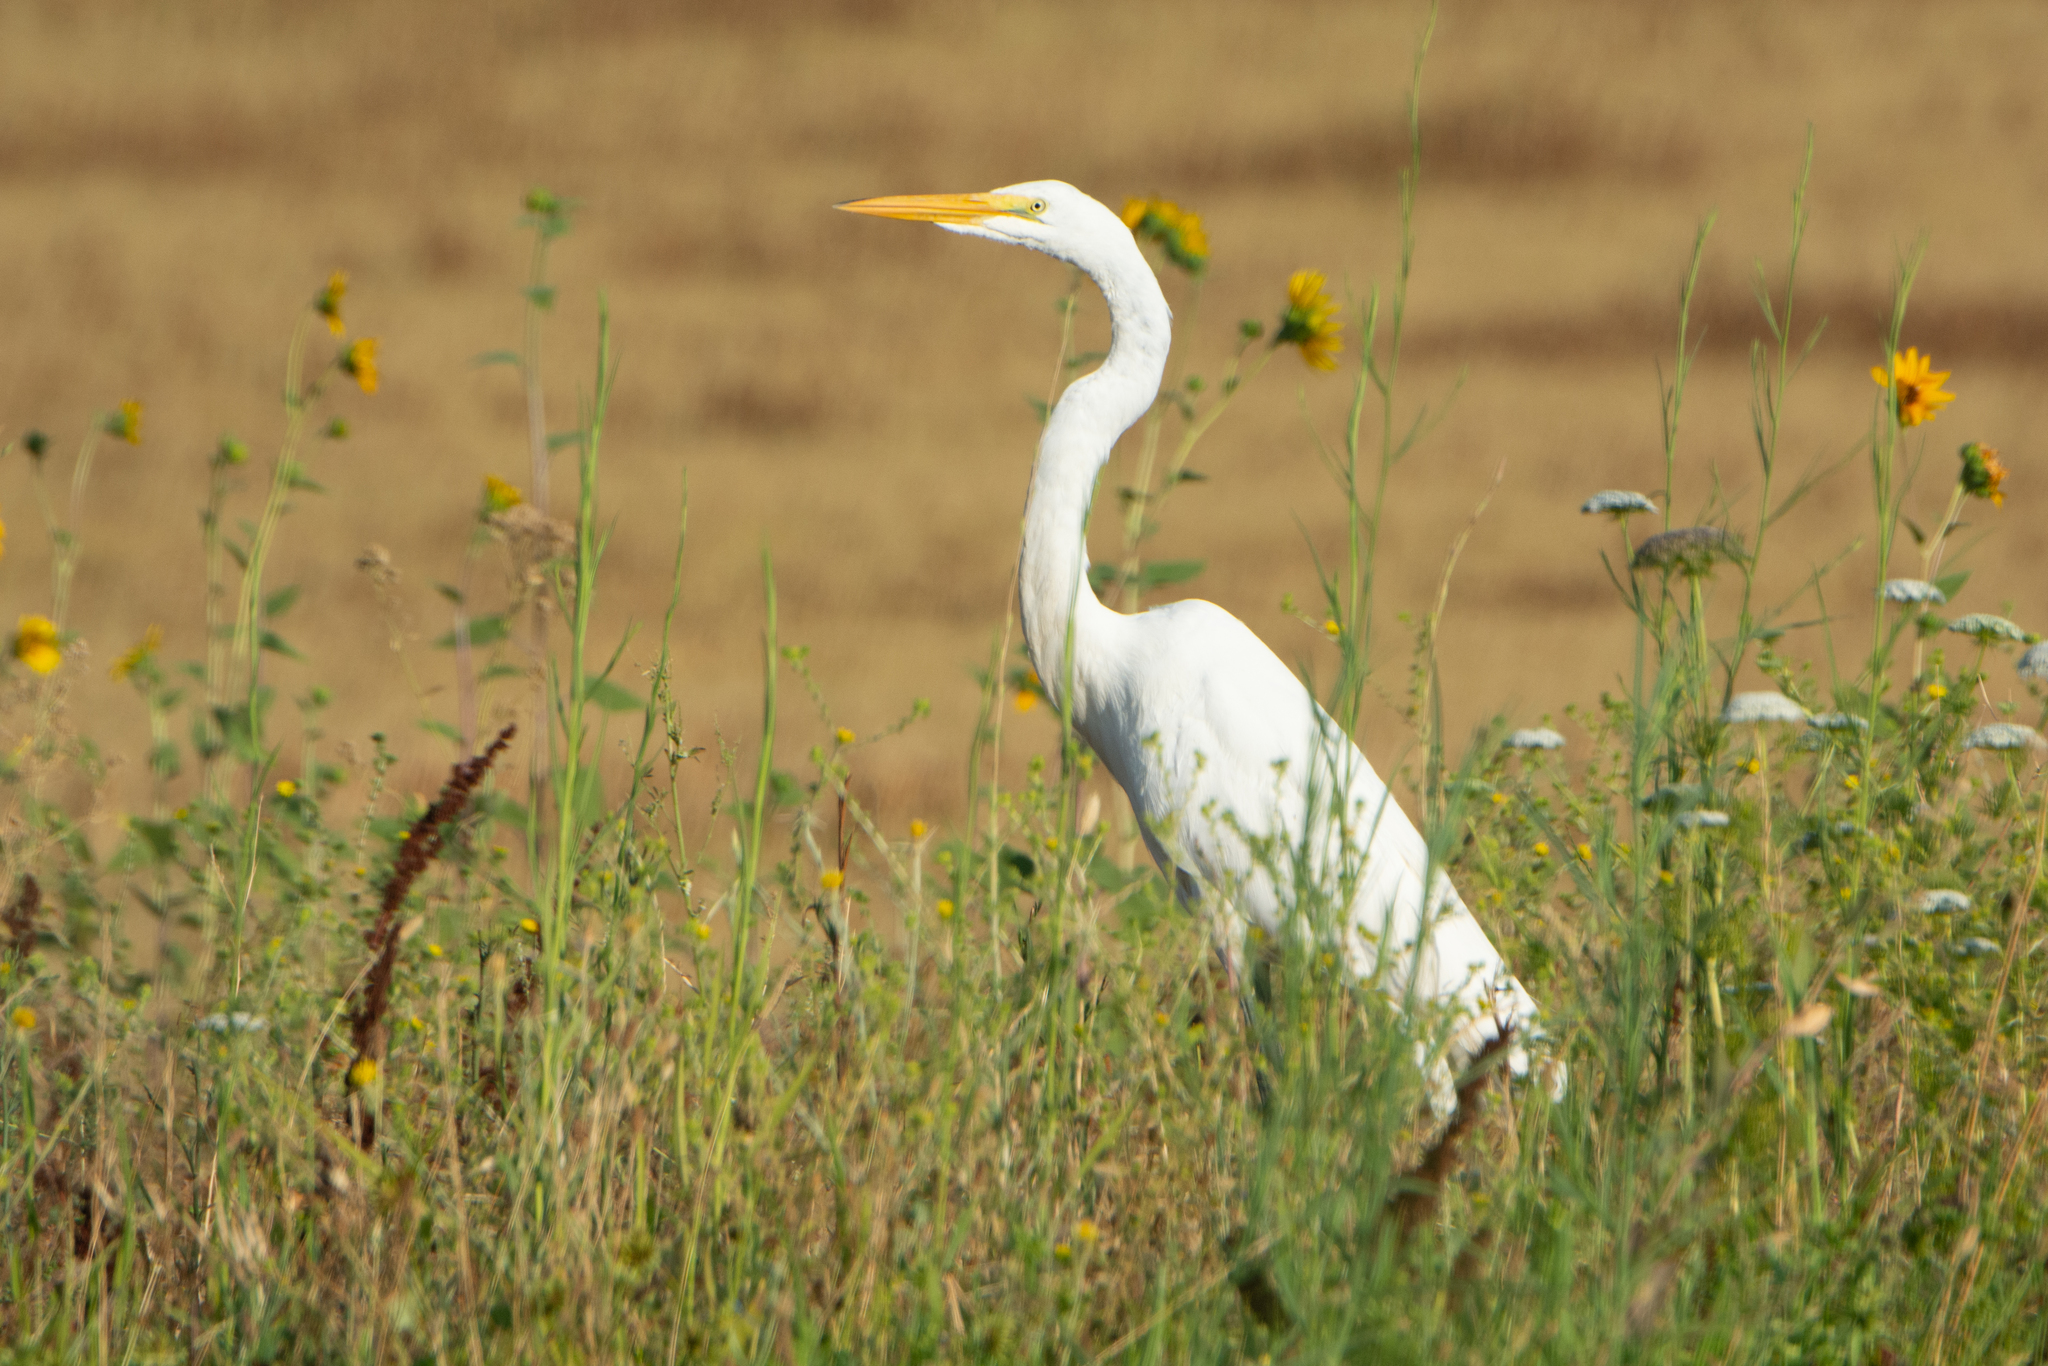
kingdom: Animalia
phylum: Chordata
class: Aves
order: Pelecaniformes
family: Ardeidae
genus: Ardea
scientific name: Ardea alba
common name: Great egret
